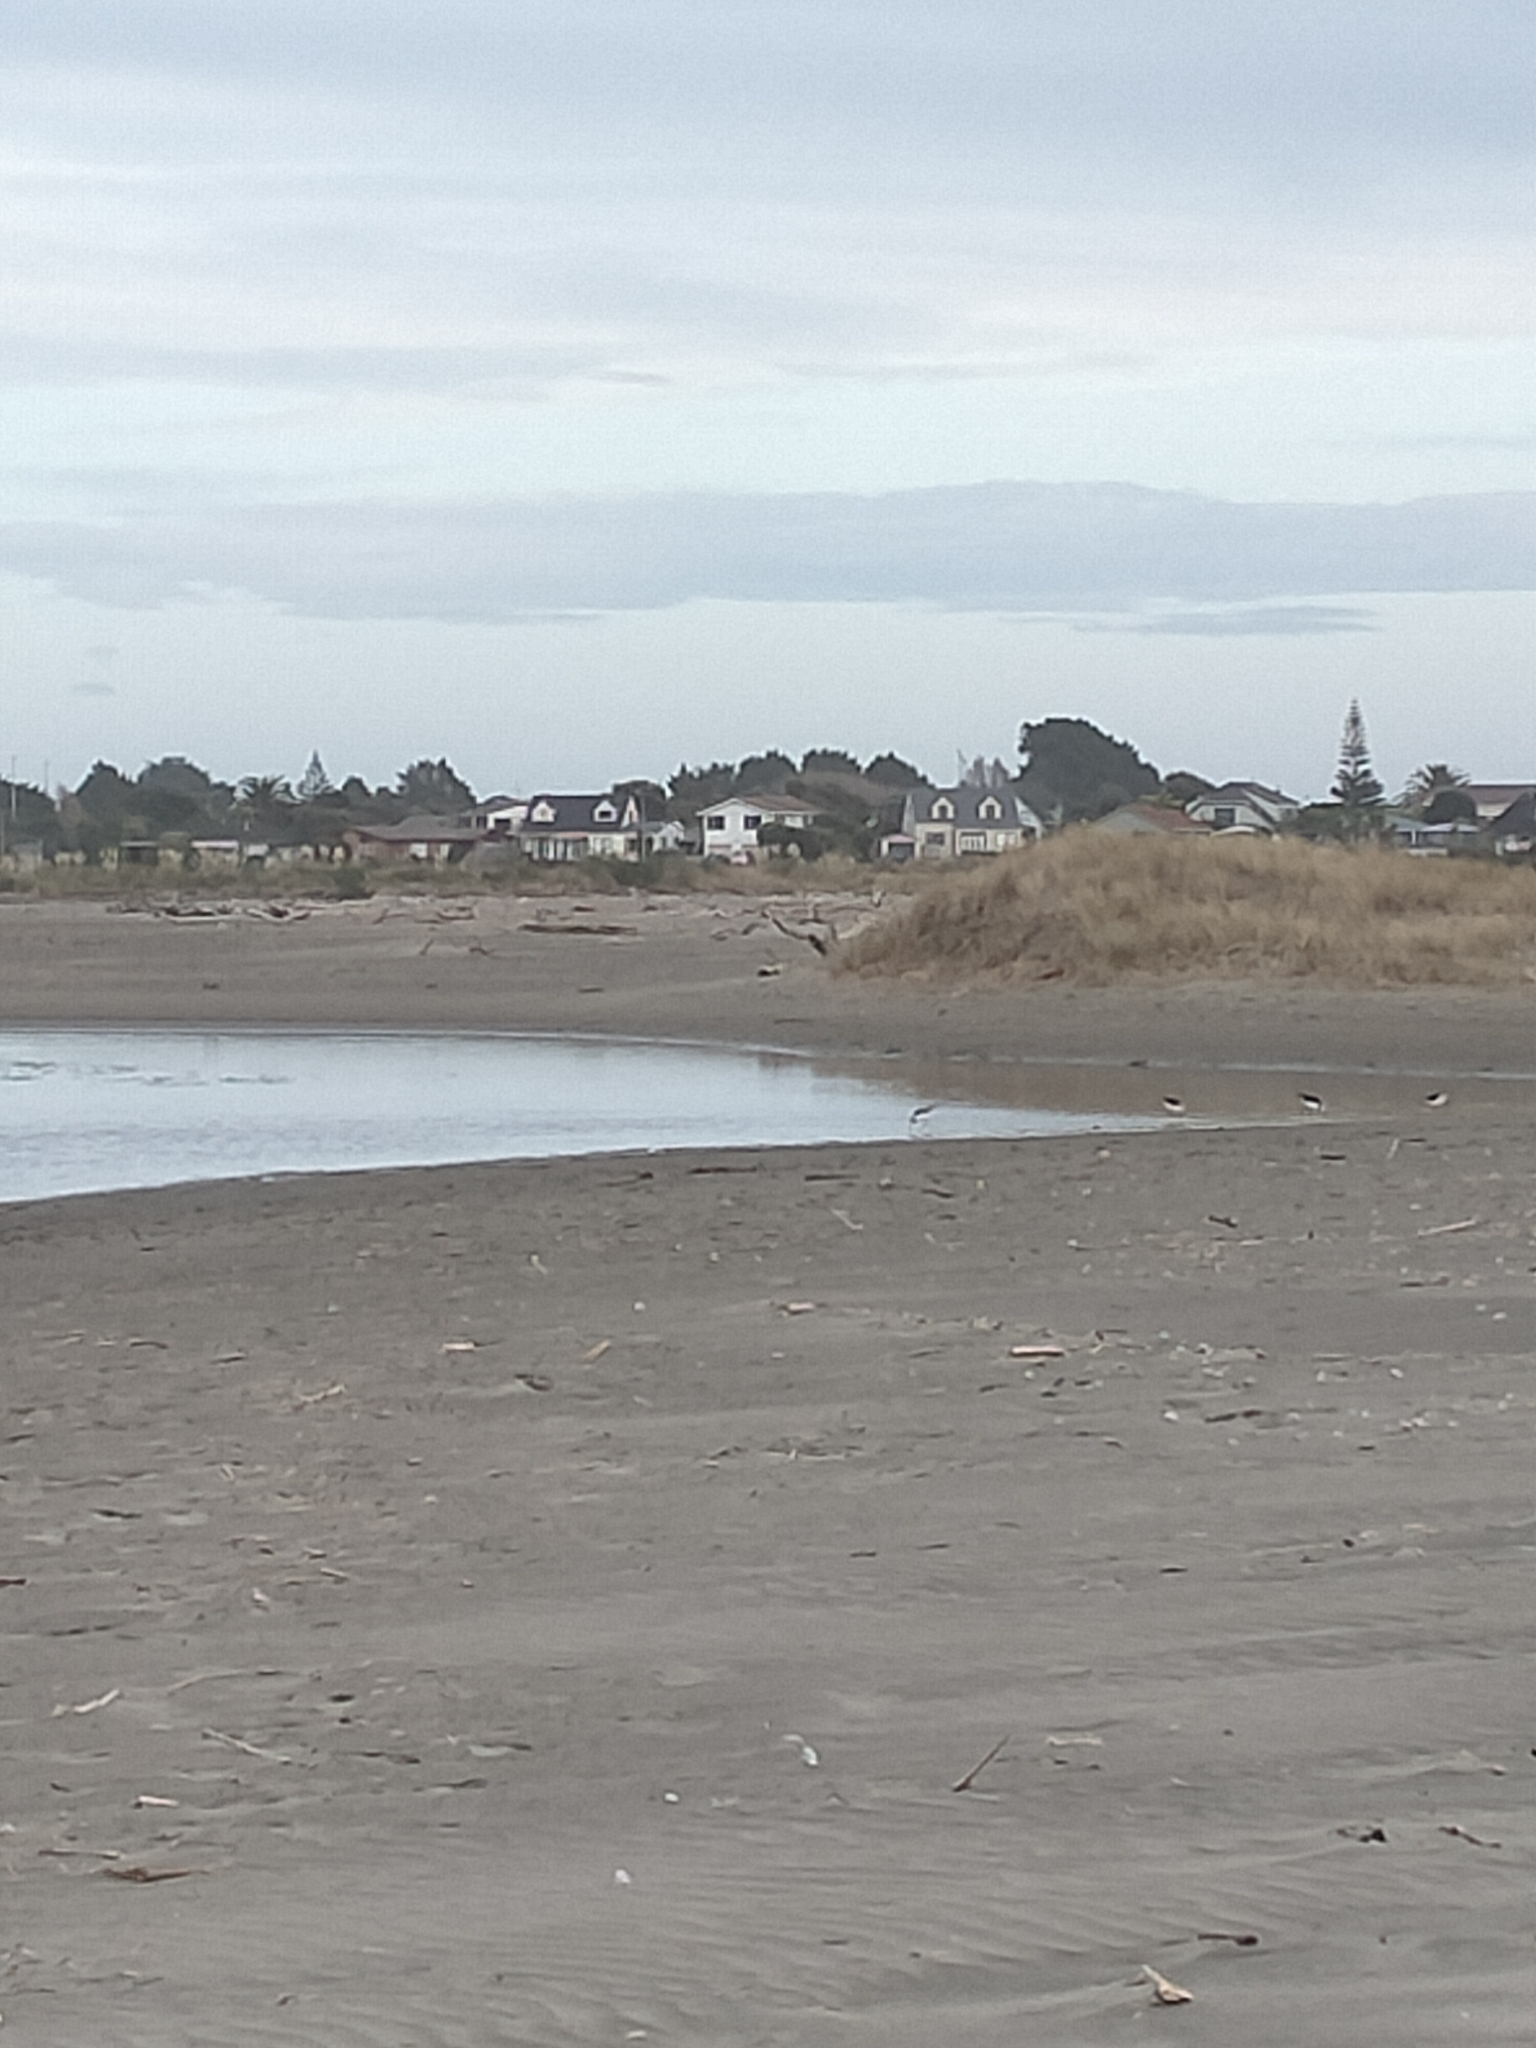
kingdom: Animalia
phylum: Chordata
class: Aves
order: Charadriiformes
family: Recurvirostridae
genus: Himantopus
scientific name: Himantopus leucocephalus
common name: White-headed stilt
